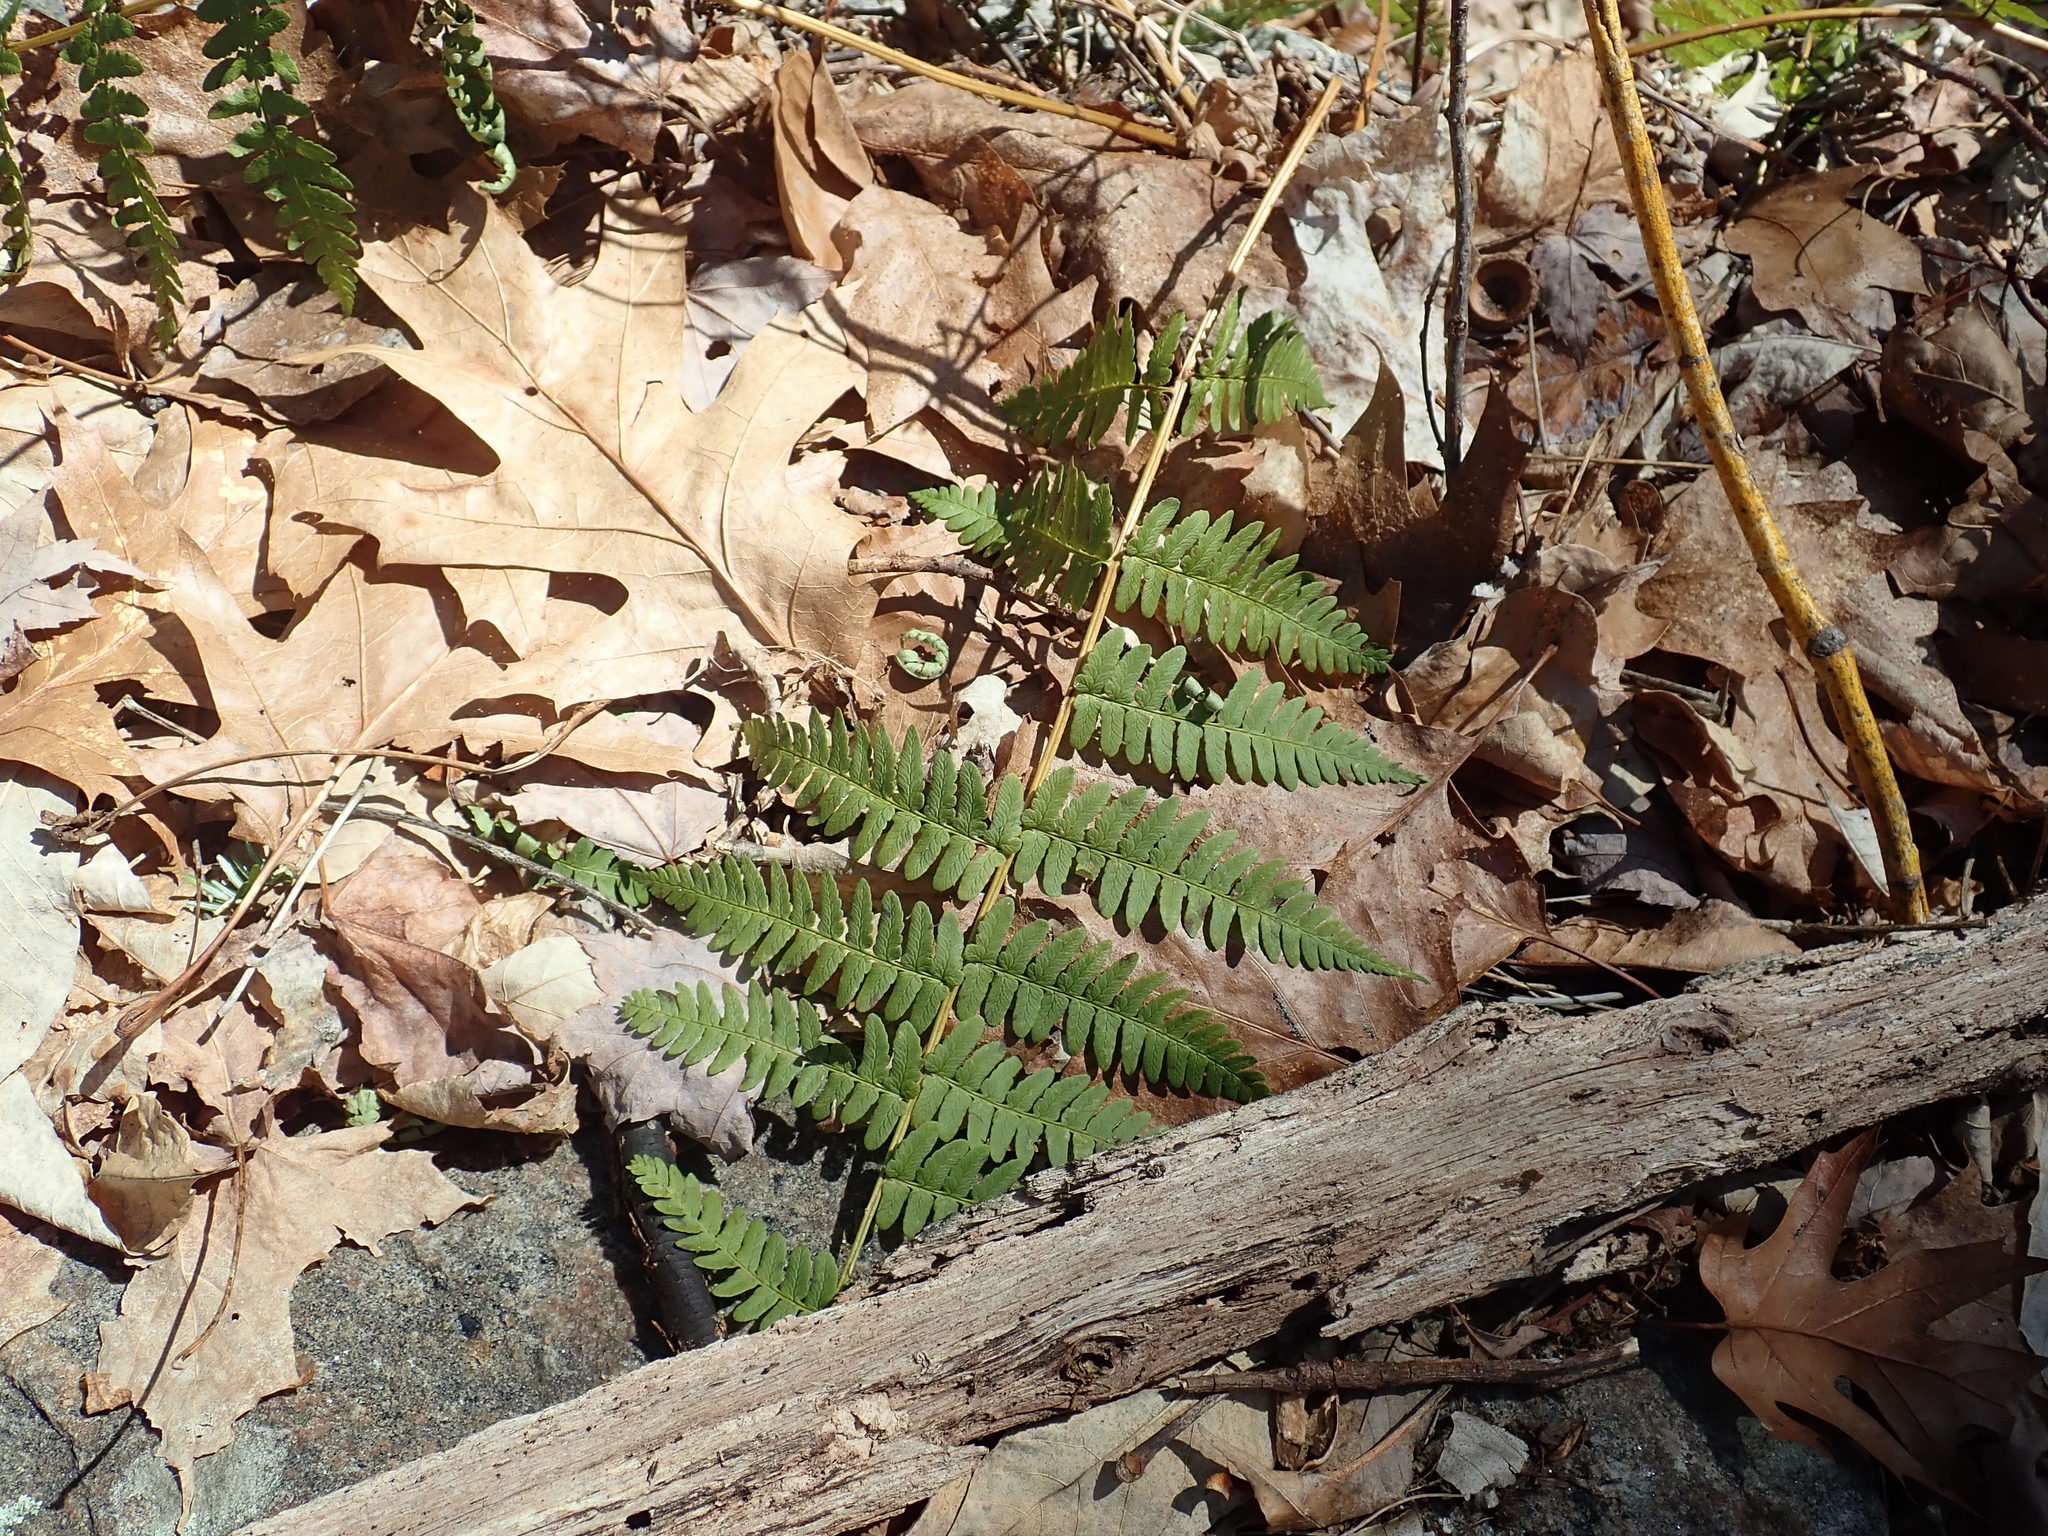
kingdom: Plantae
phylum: Tracheophyta
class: Polypodiopsida
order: Polypodiales
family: Dryopteridaceae
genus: Dryopteris
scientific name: Dryopteris marginalis
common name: Marginal wood fern
